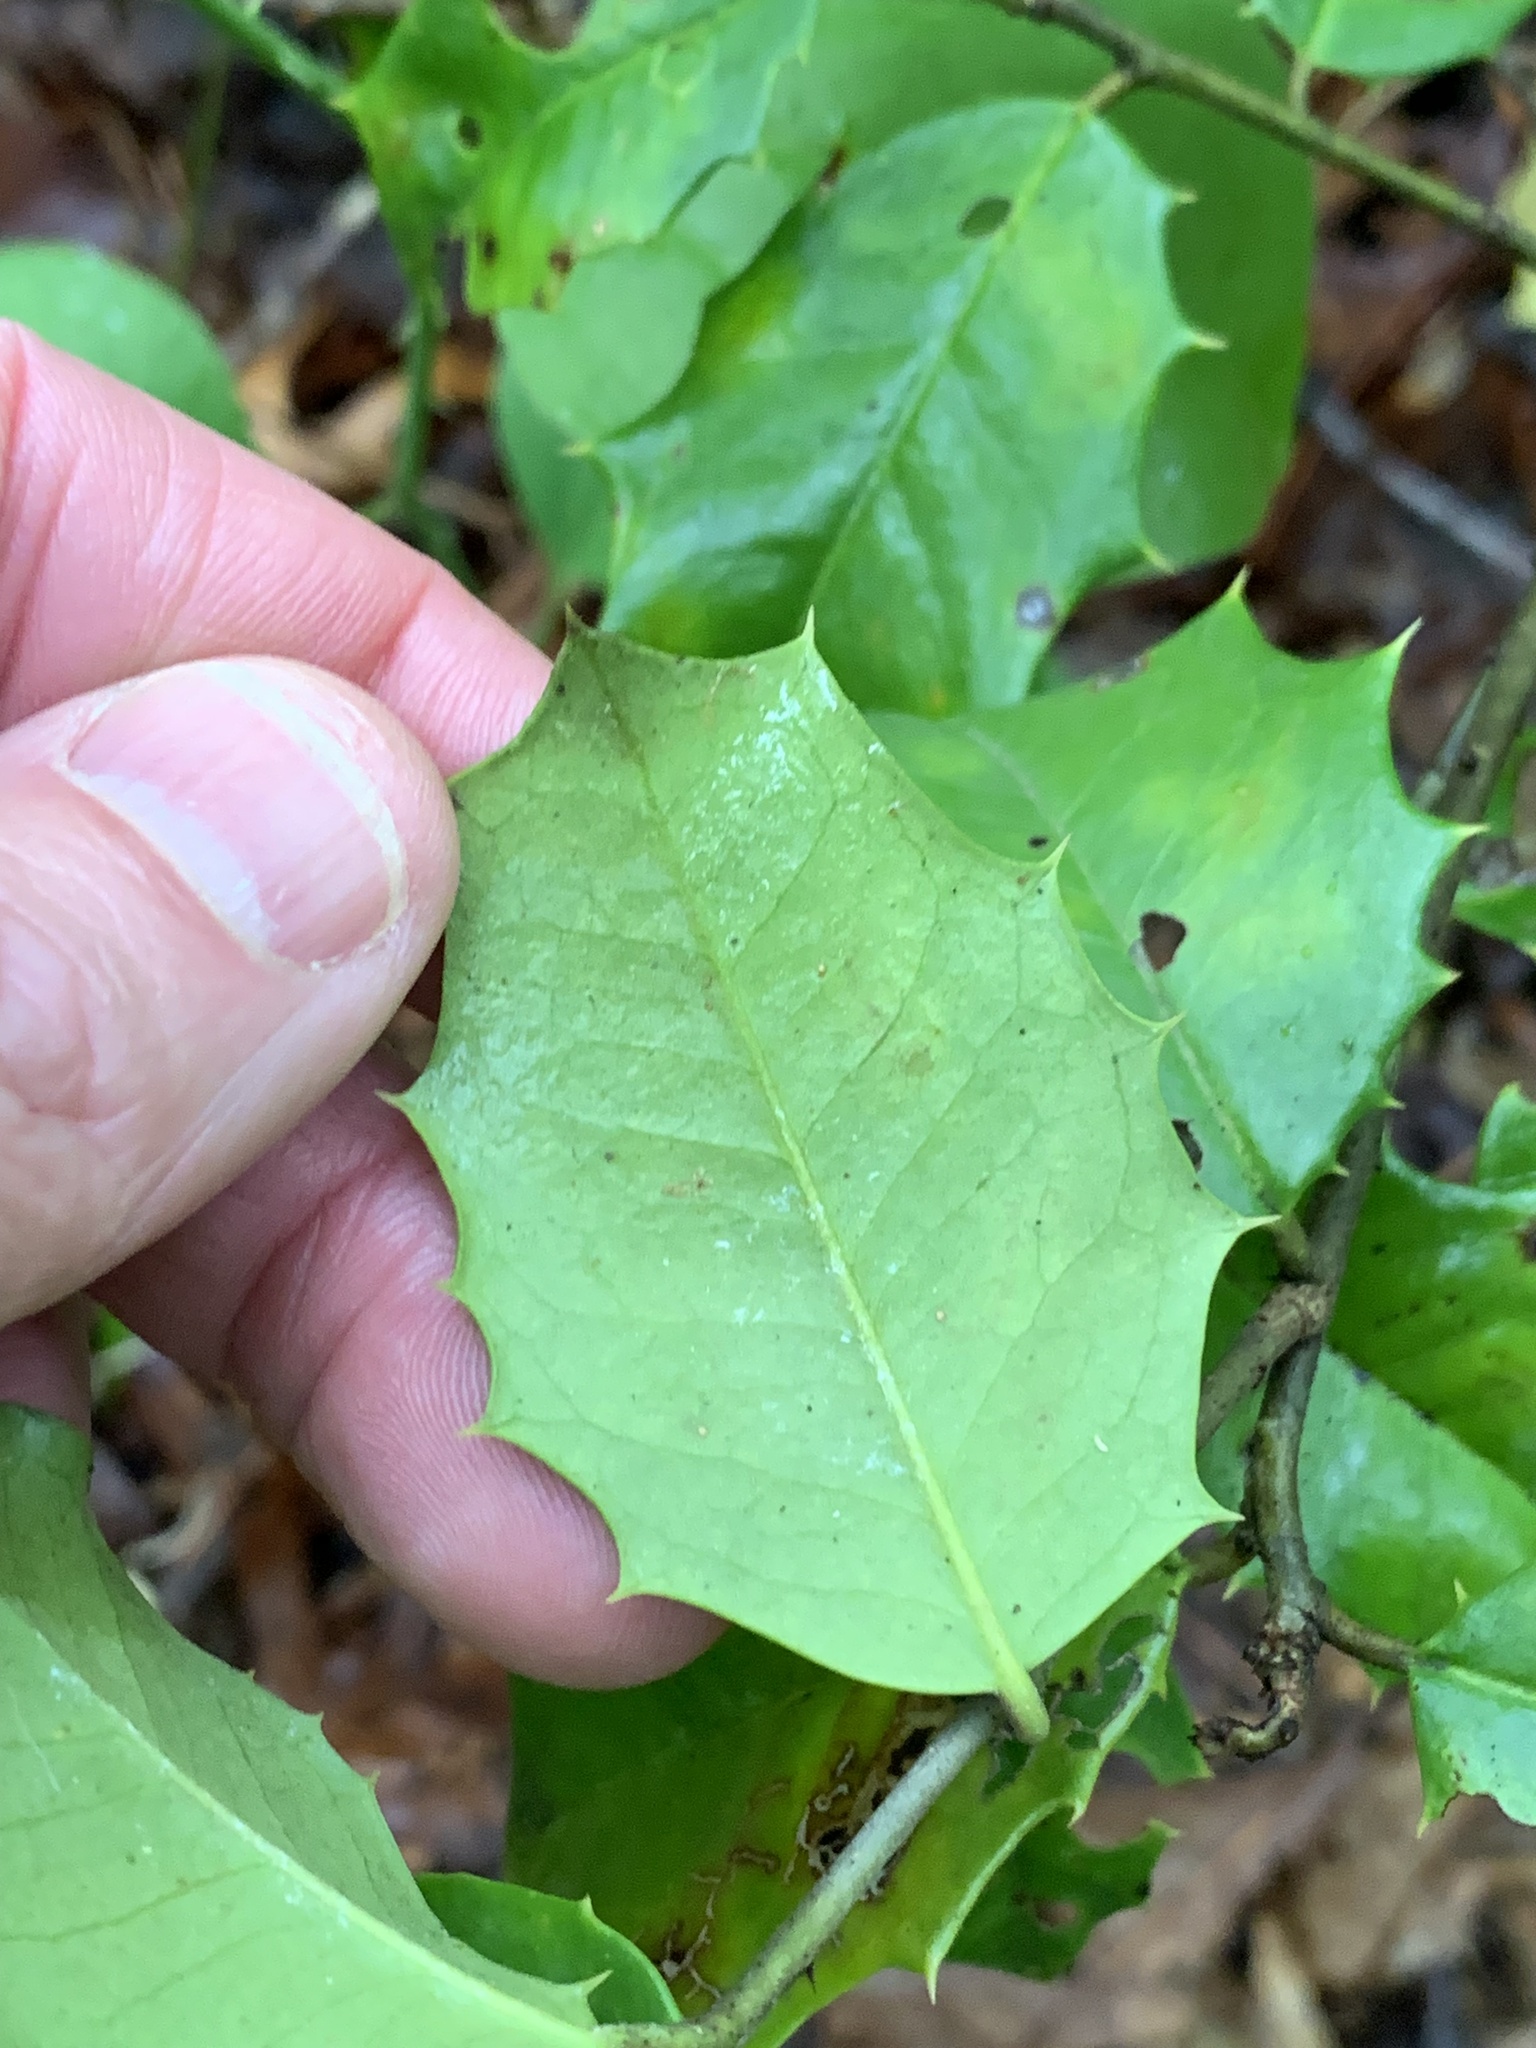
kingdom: Animalia
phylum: Arthropoda
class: Insecta
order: Diptera
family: Agromyzidae
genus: Phytomyza
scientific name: Phytomyza ilicicola
